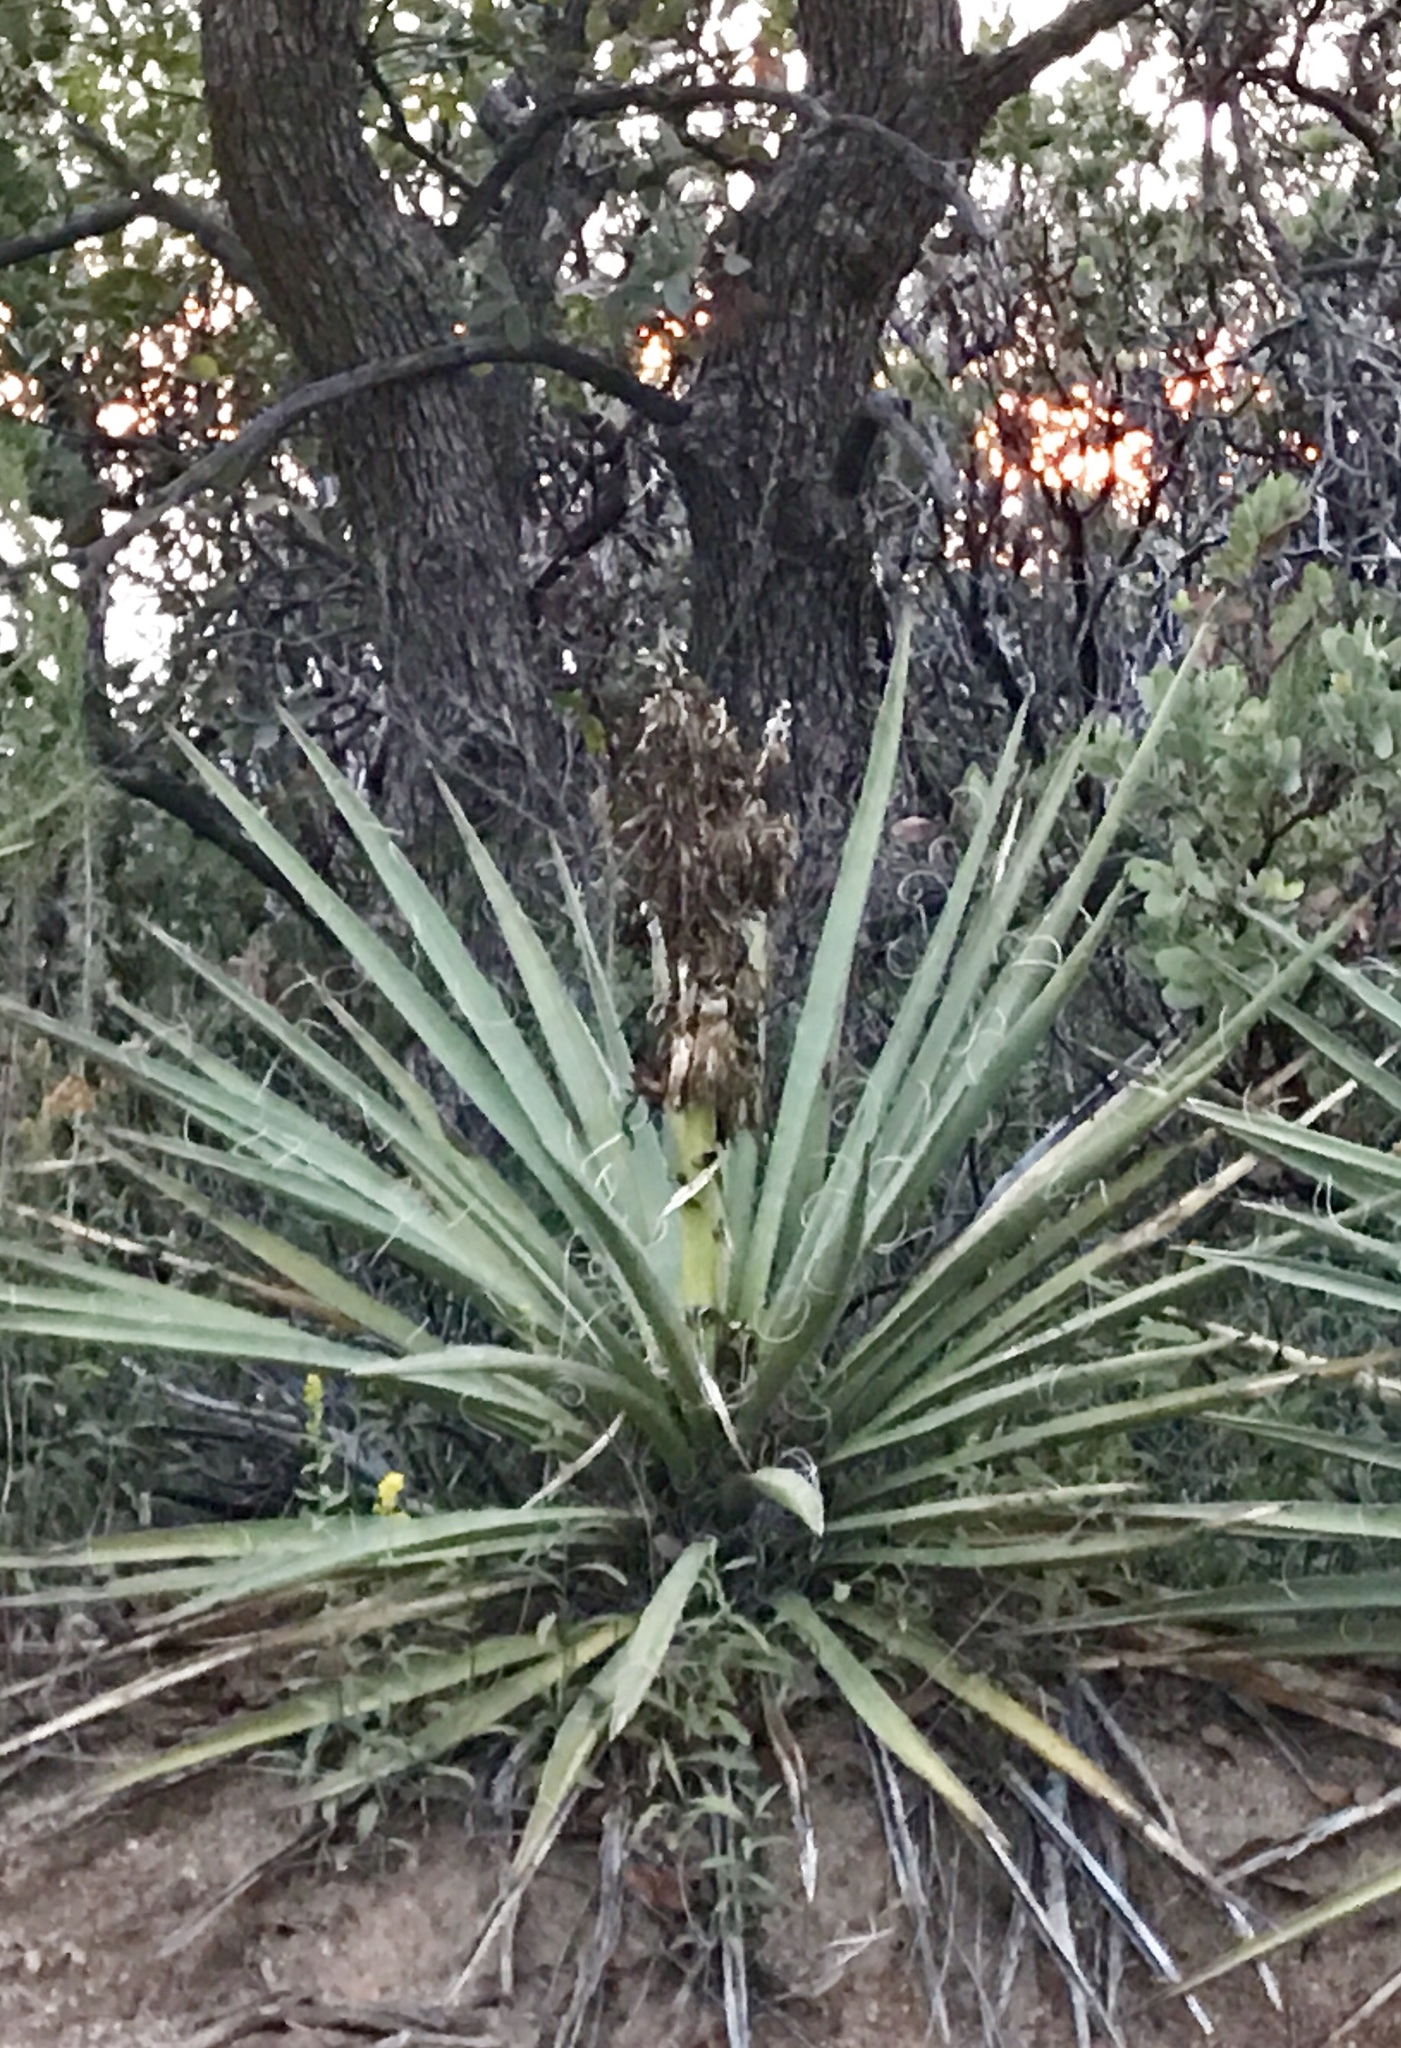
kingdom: Plantae
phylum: Tracheophyta
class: Liliopsida
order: Asparagales
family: Asparagaceae
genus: Yucca
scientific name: Yucca baccata
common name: Banana yucca
